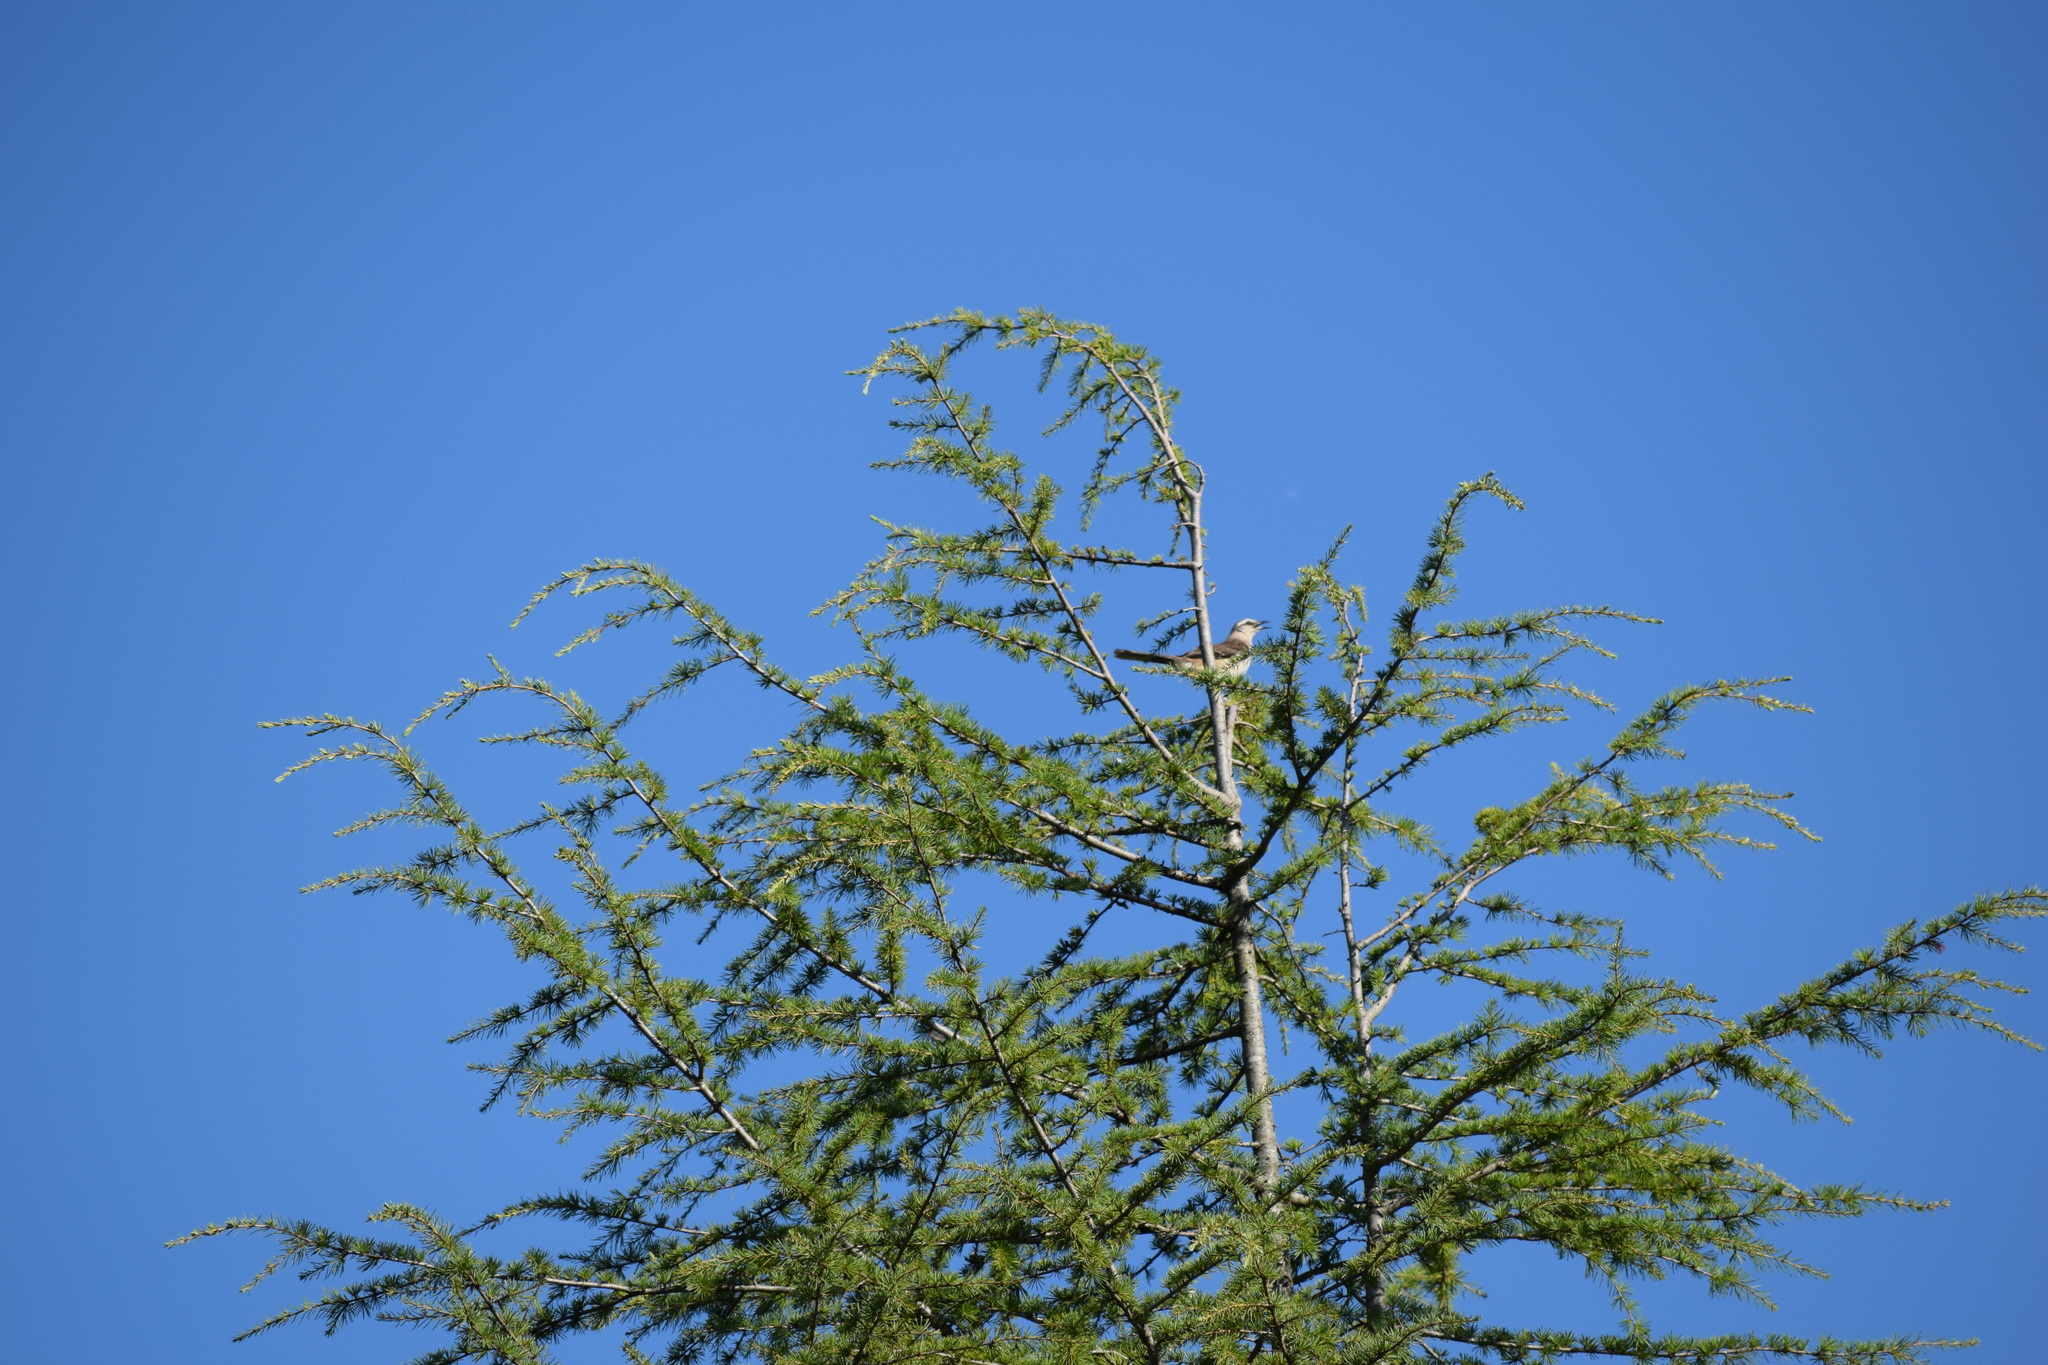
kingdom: Animalia
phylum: Chordata
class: Aves
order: Passeriformes
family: Mimidae
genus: Mimus
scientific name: Mimus saturninus
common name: Chalk-browed mockingbird
